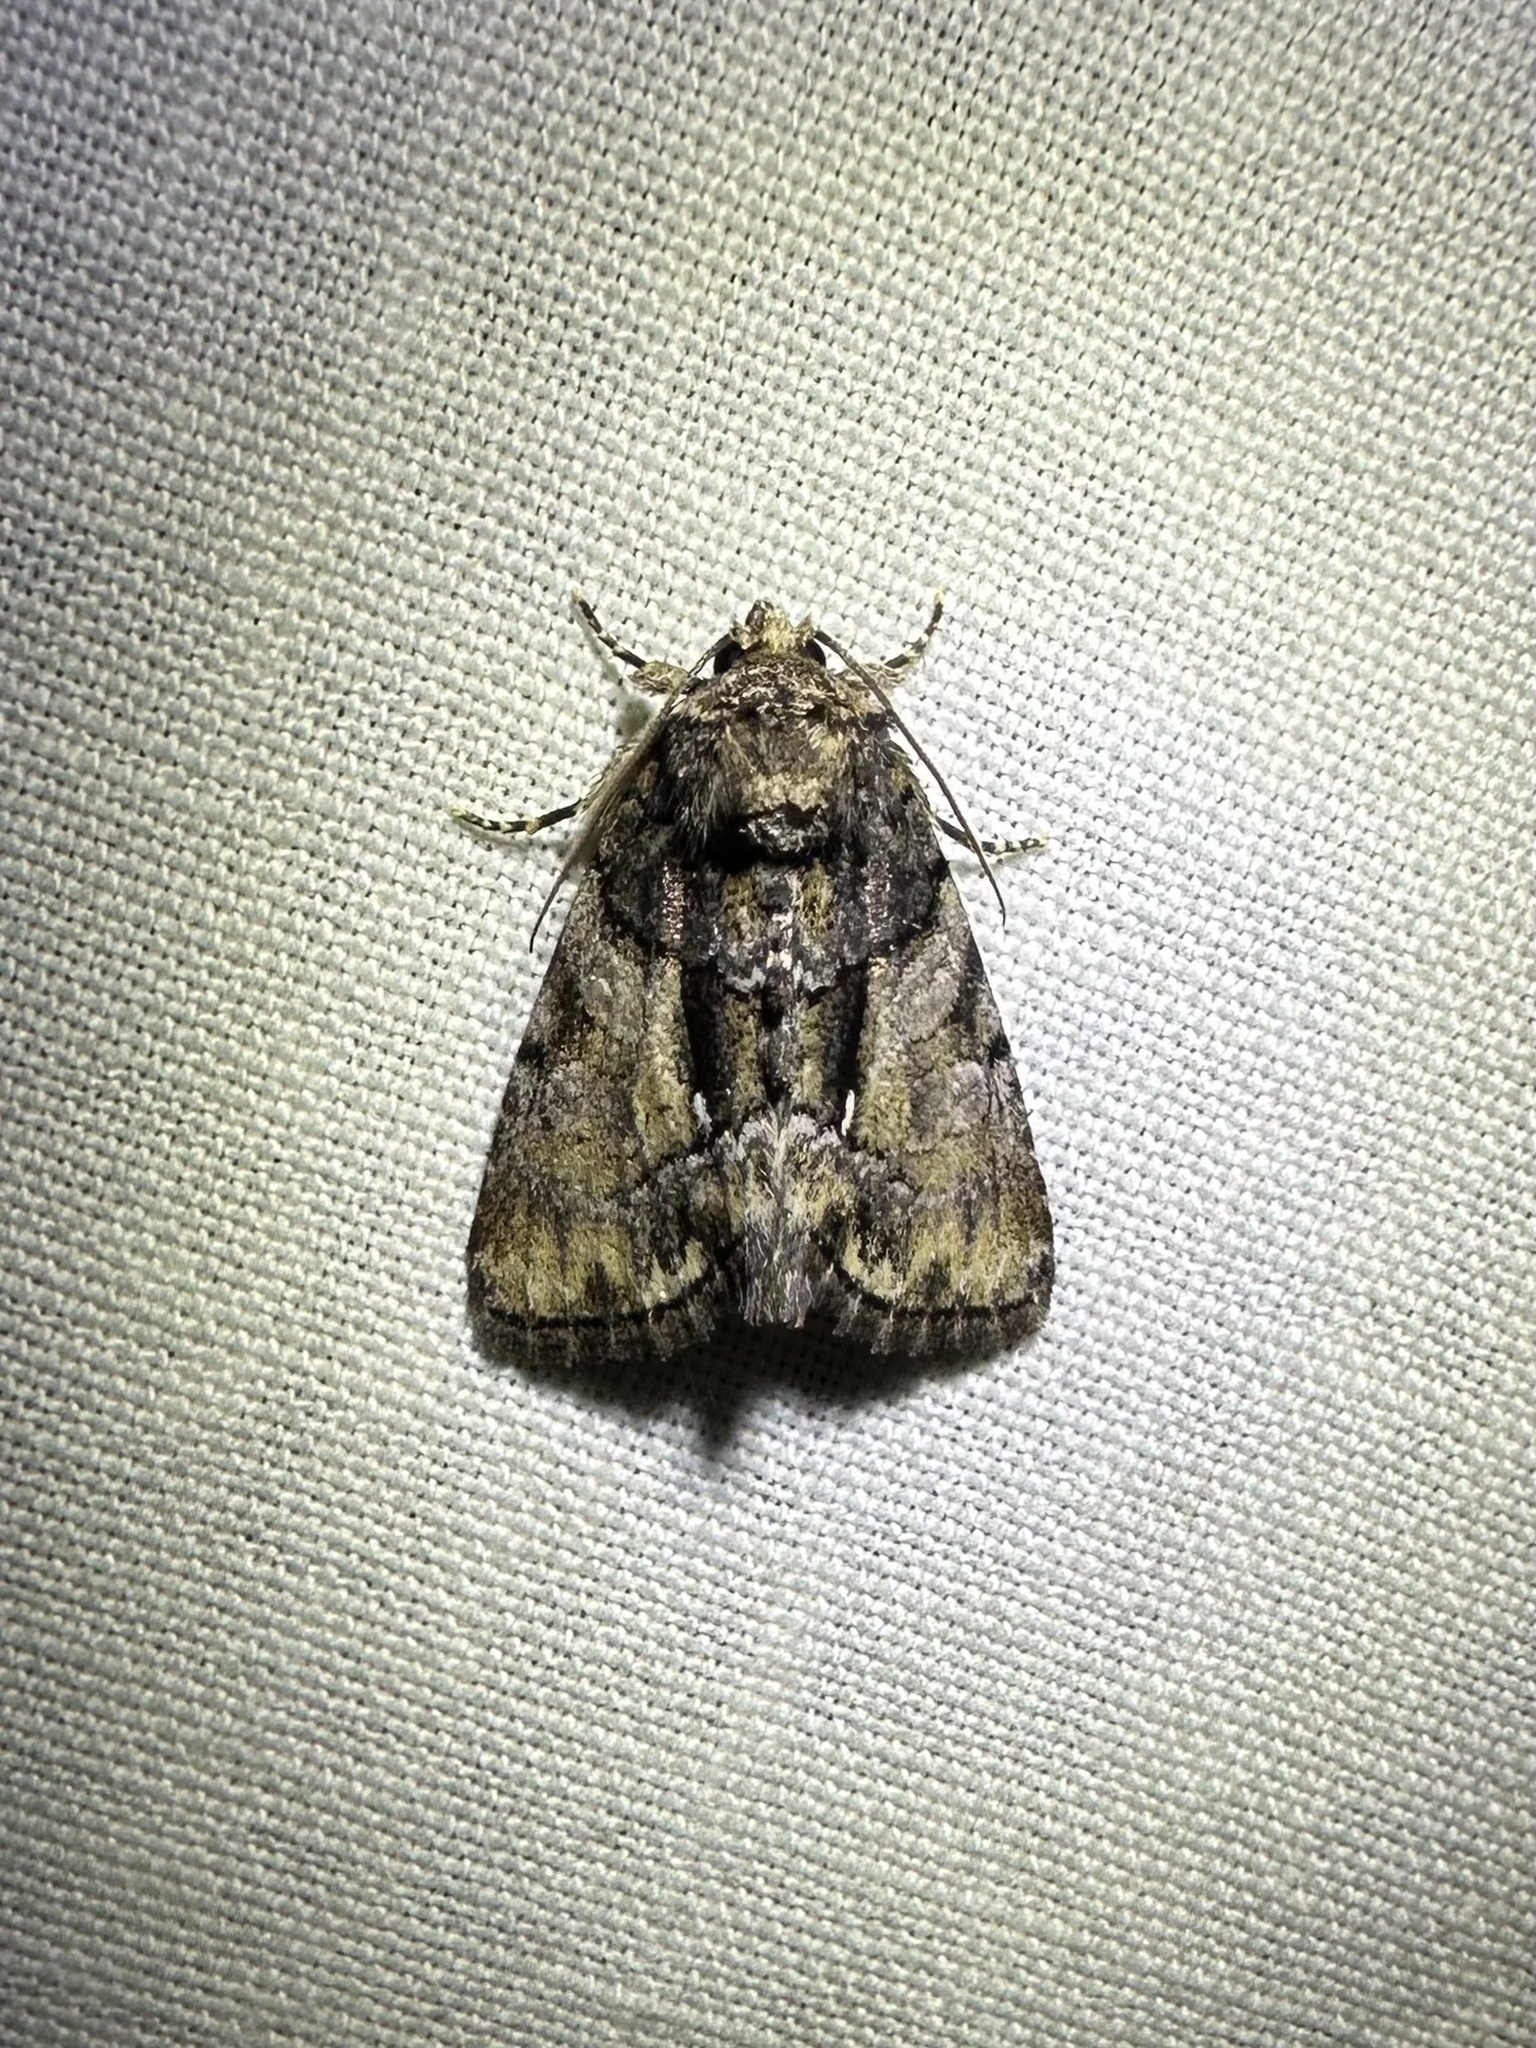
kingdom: Animalia
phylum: Arthropoda
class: Insecta
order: Lepidoptera
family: Noctuidae
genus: Chytonix
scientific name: Chytonix palliatricula
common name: Cloaked marvel
